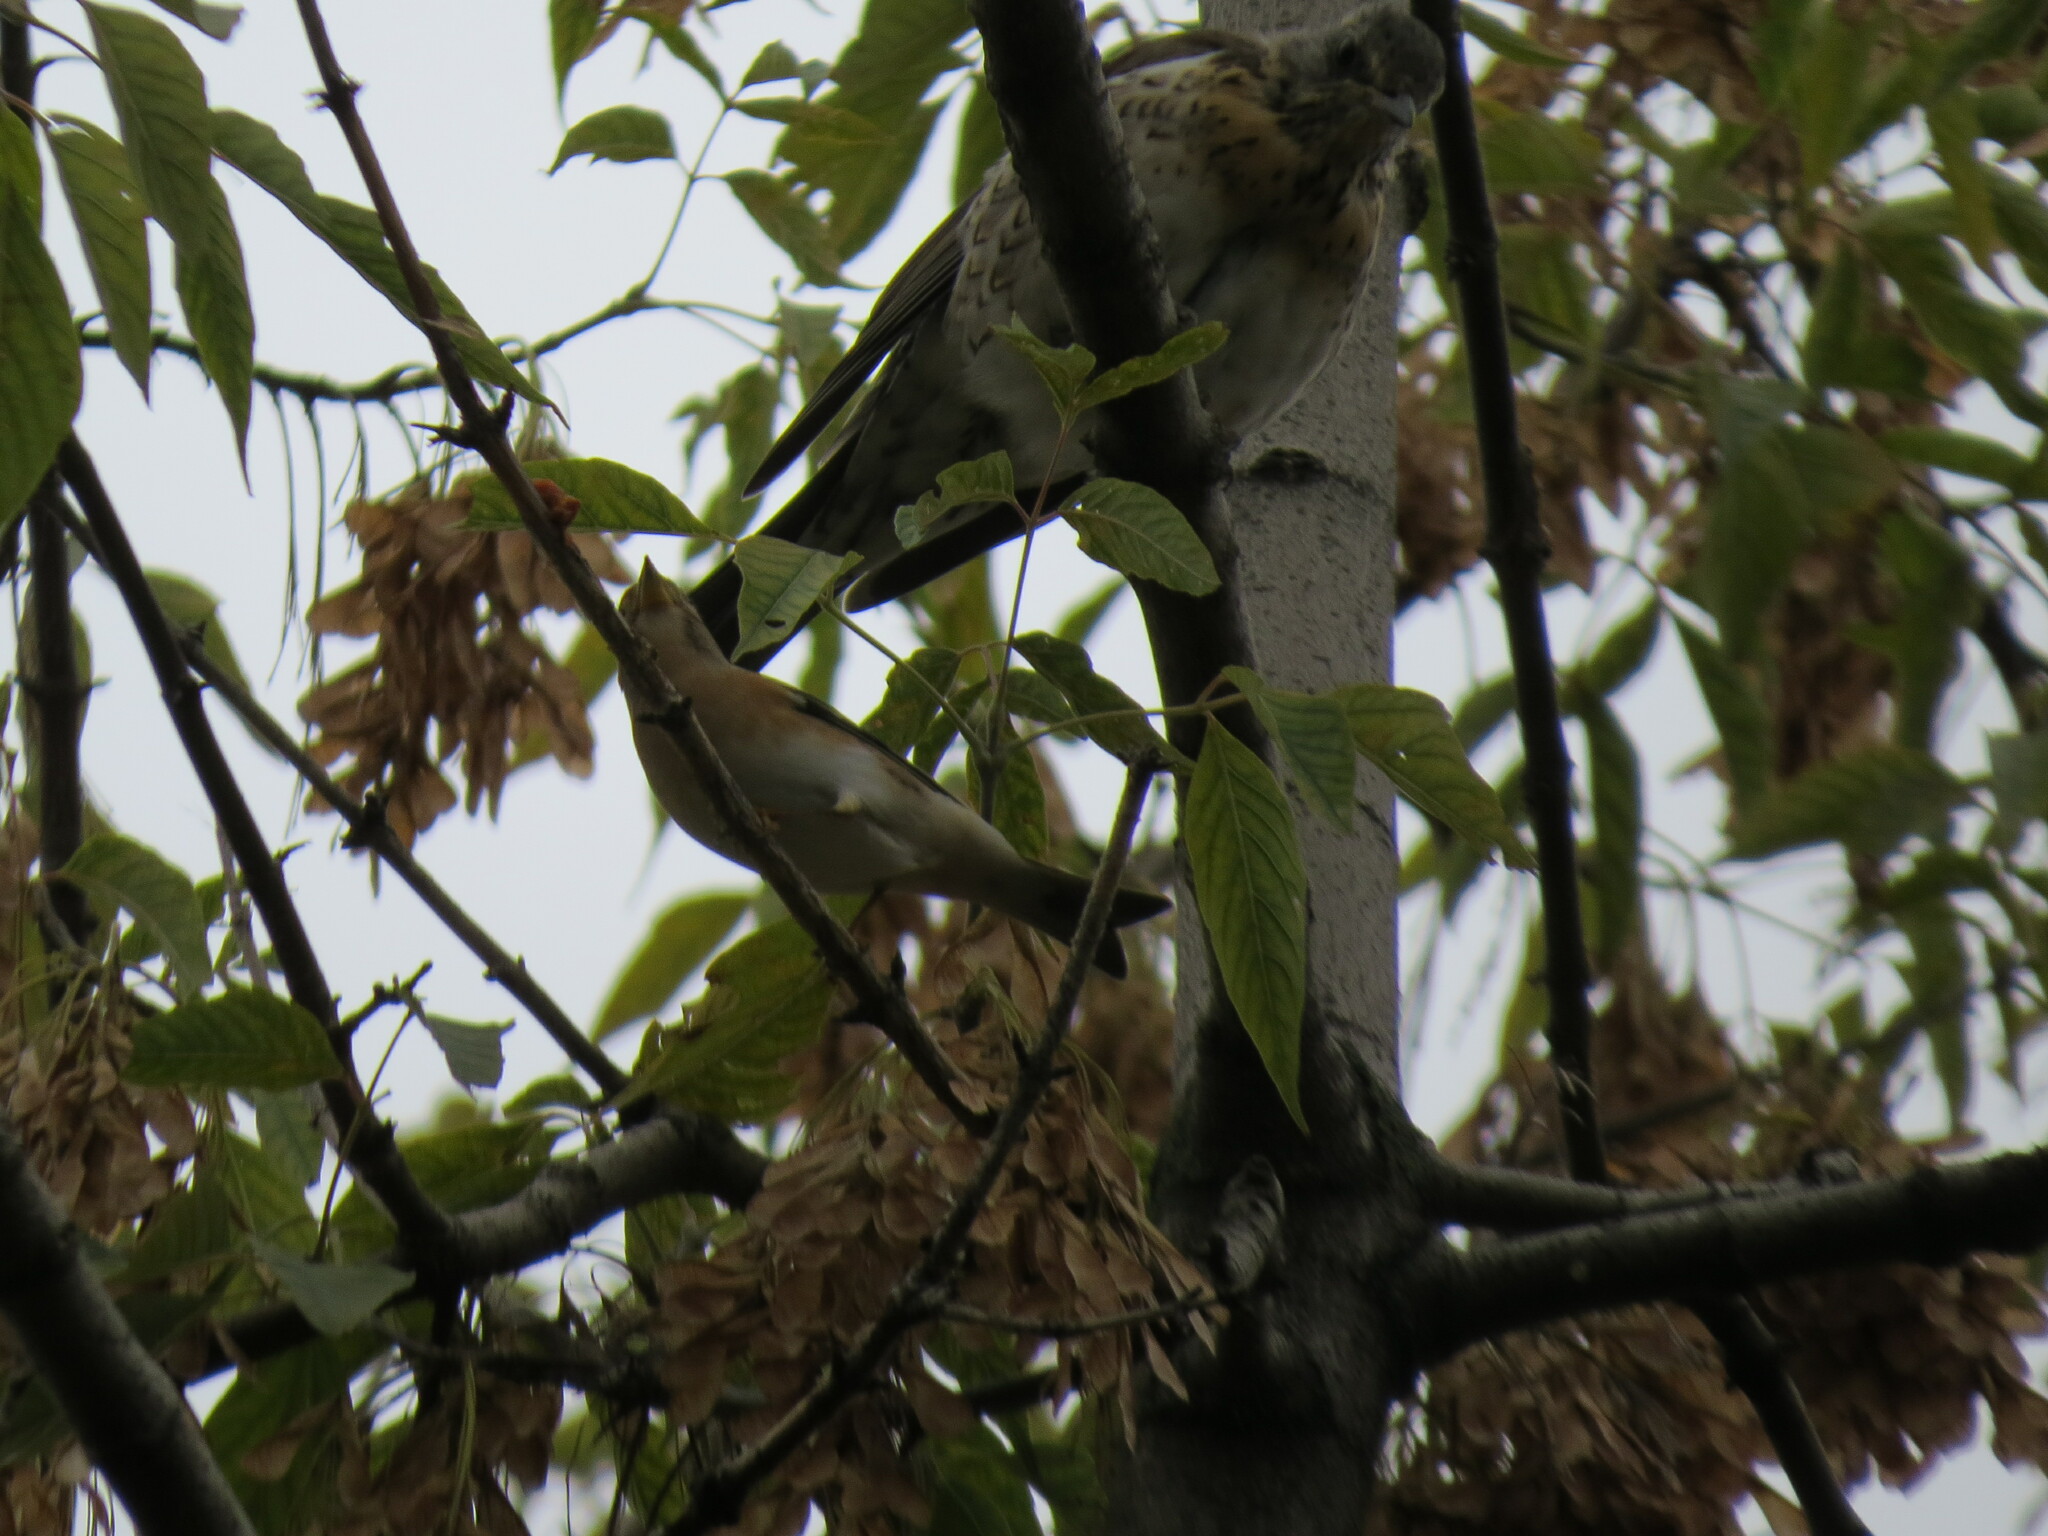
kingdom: Animalia
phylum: Chordata
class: Aves
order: Passeriformes
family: Fringillidae
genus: Fringilla
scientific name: Fringilla montifringilla
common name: Brambling
